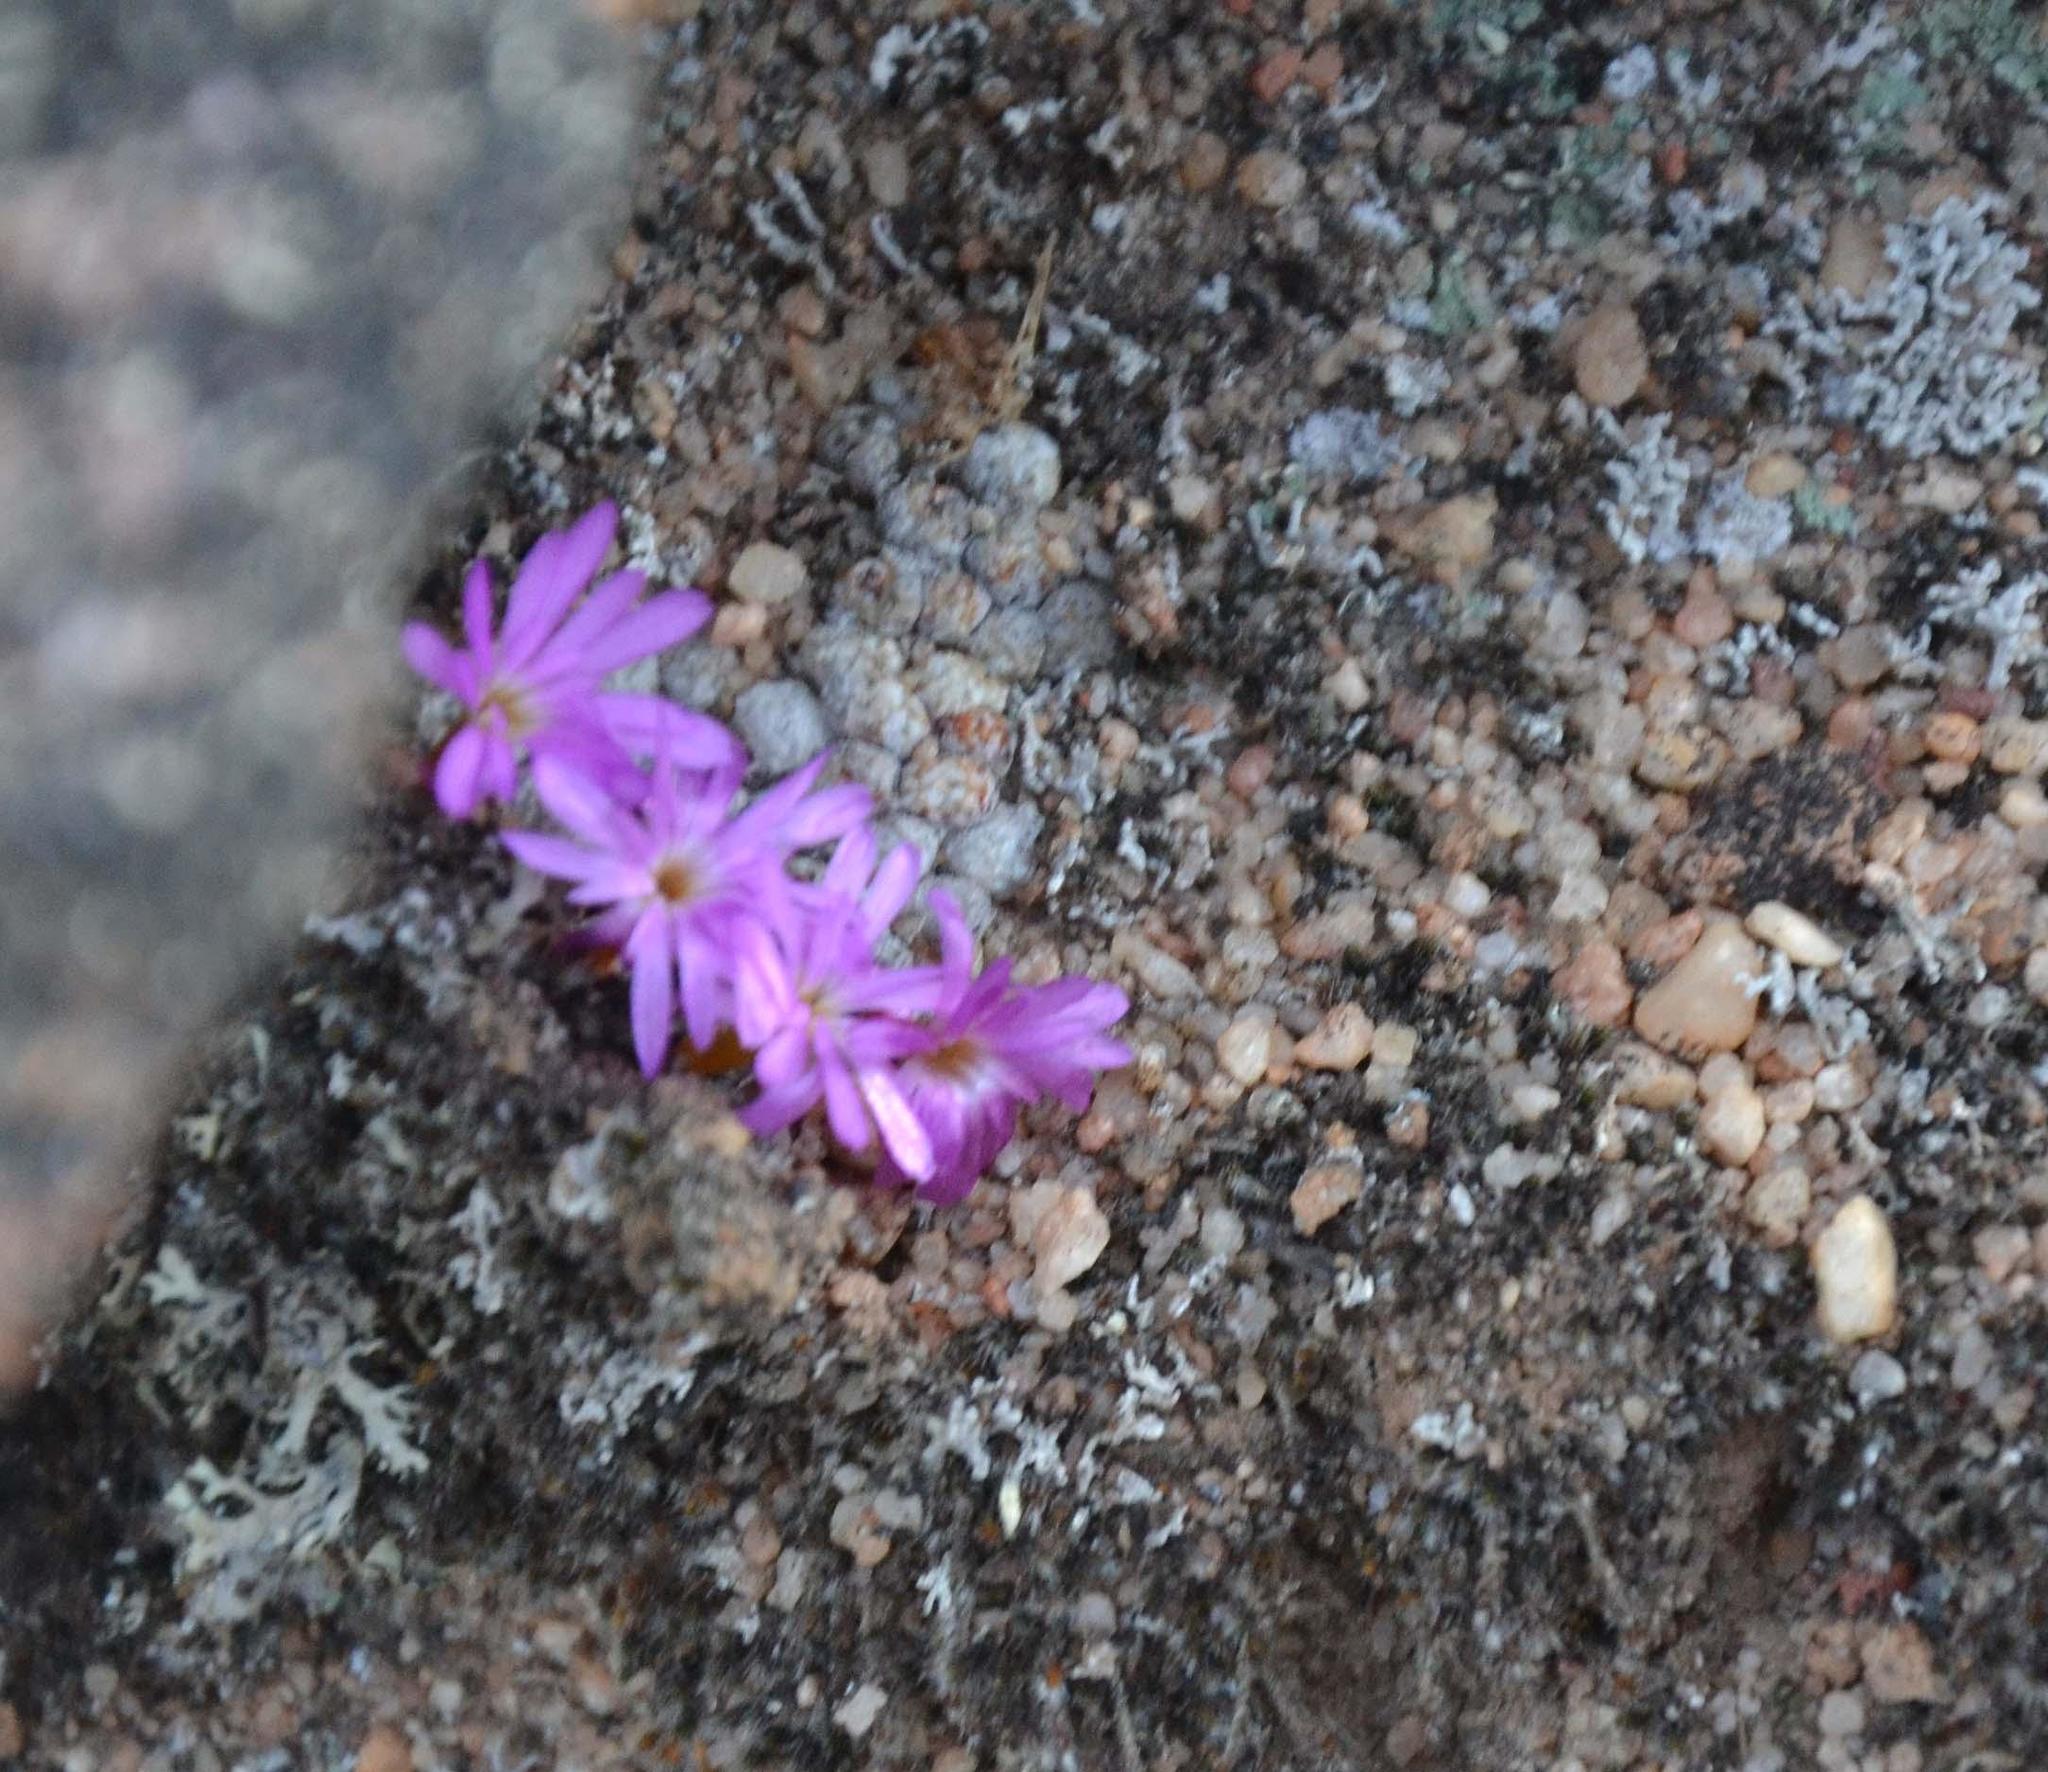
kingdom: Plantae
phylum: Tracheophyta
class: Magnoliopsida
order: Caryophyllales
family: Aizoaceae
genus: Conophytum
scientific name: Conophytum minusculum
